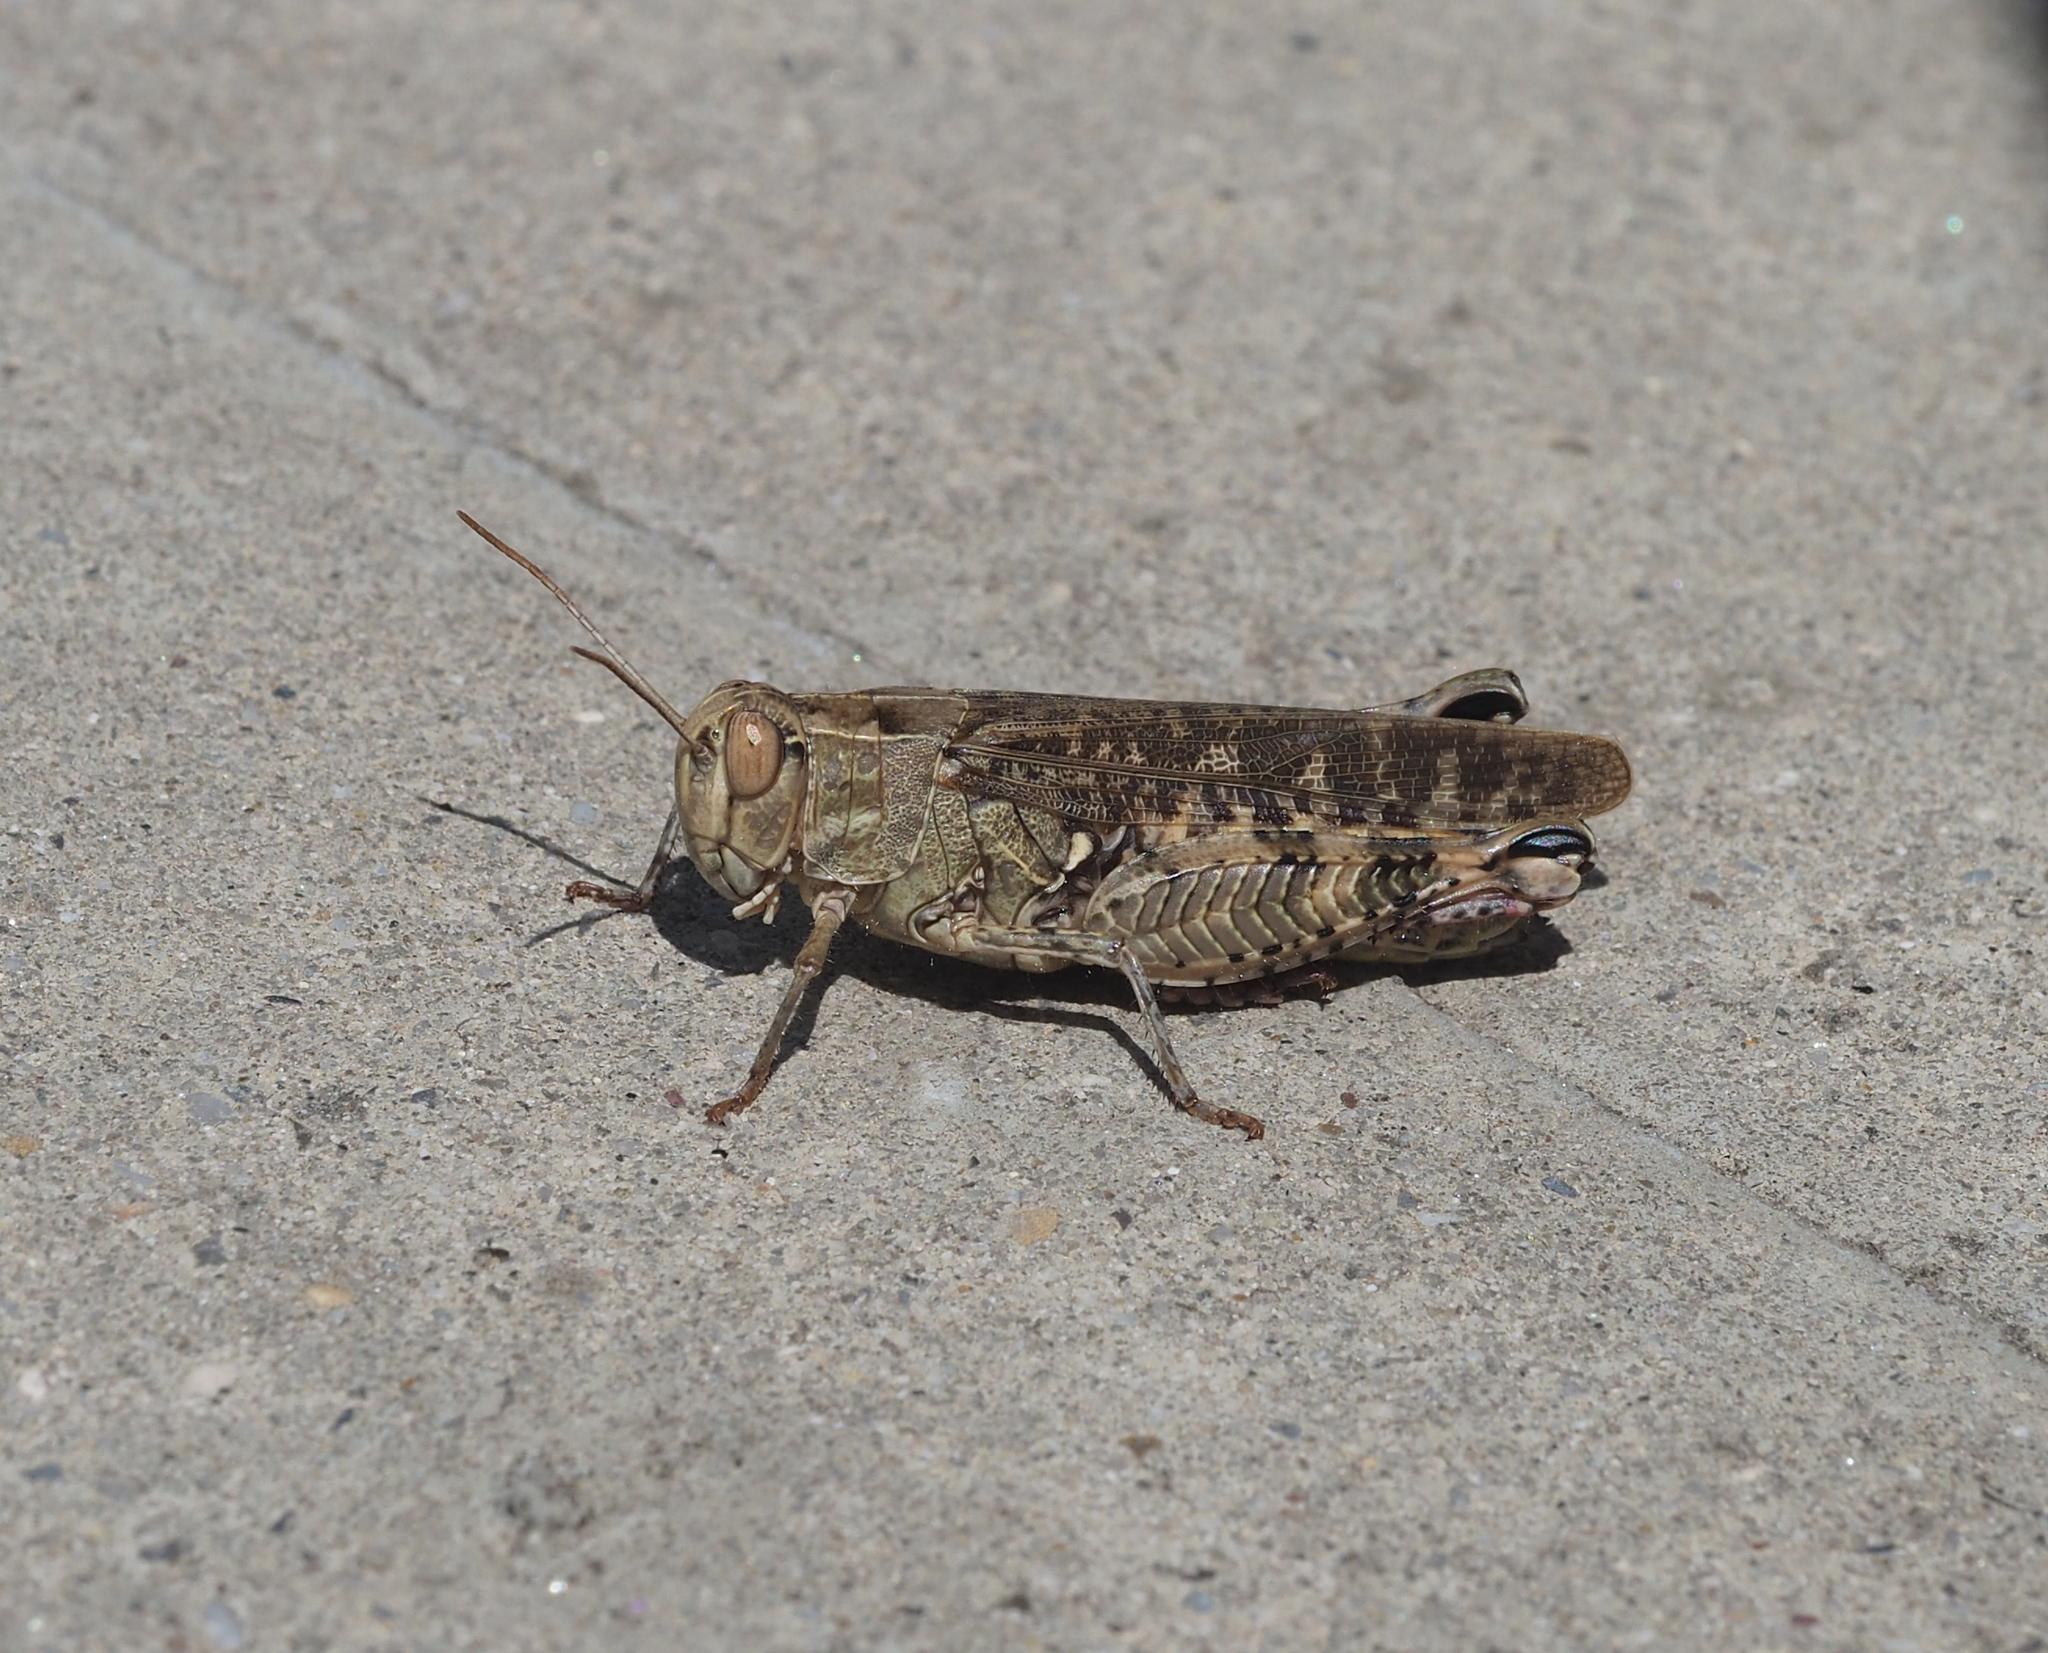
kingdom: Animalia
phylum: Arthropoda
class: Insecta
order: Orthoptera
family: Acrididae
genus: Calliptamus
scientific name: Calliptamus italicus
